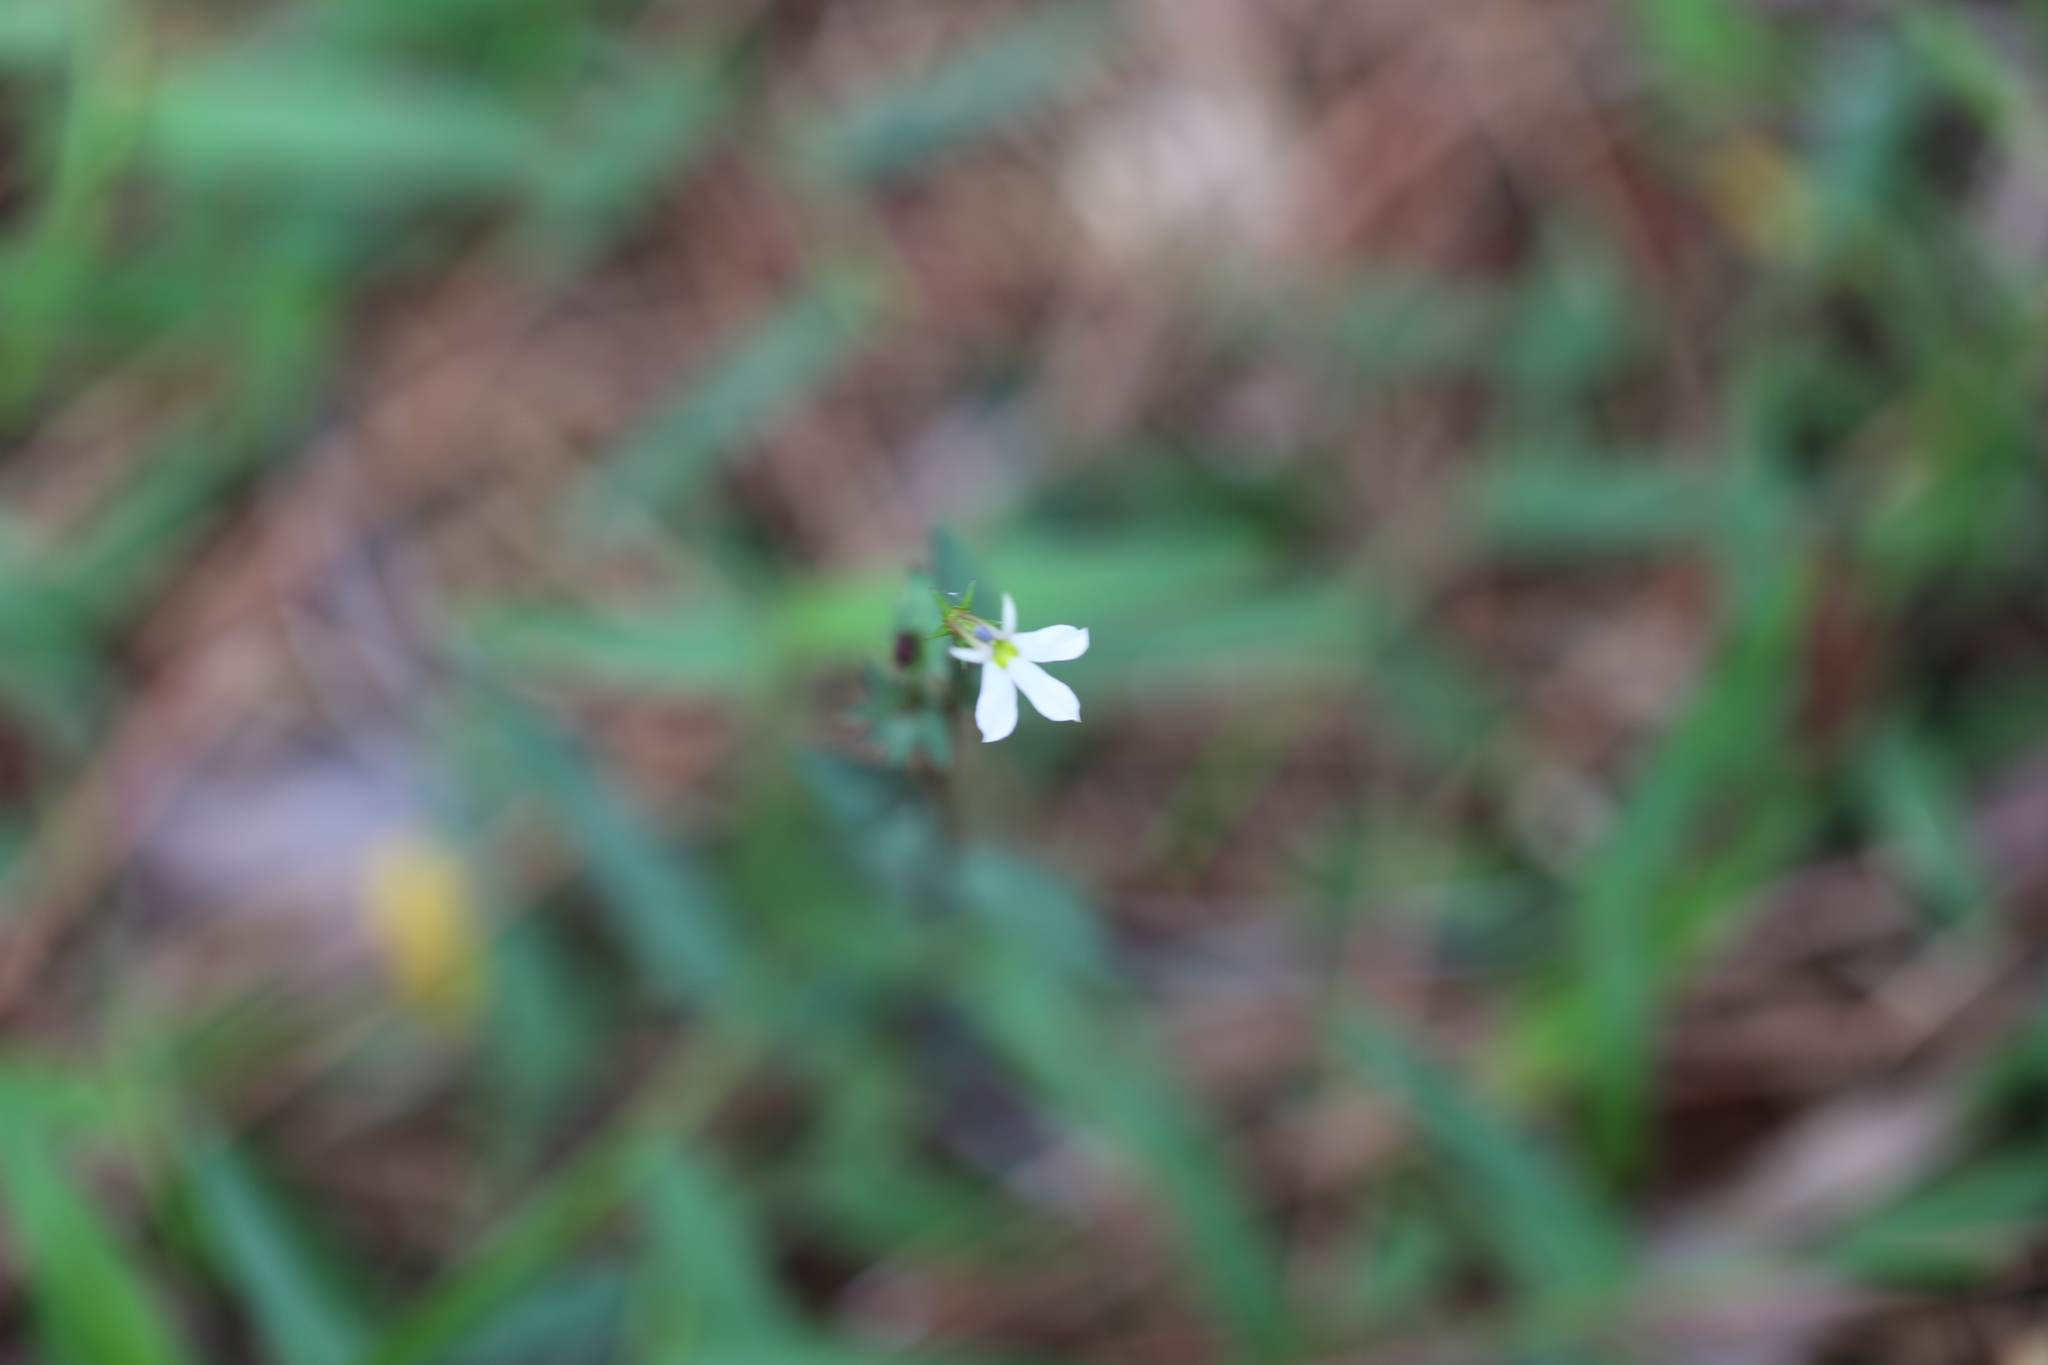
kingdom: Plantae
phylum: Tracheophyta
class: Magnoliopsida
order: Asterales
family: Campanulaceae
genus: Lobelia
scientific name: Lobelia purpurascens
